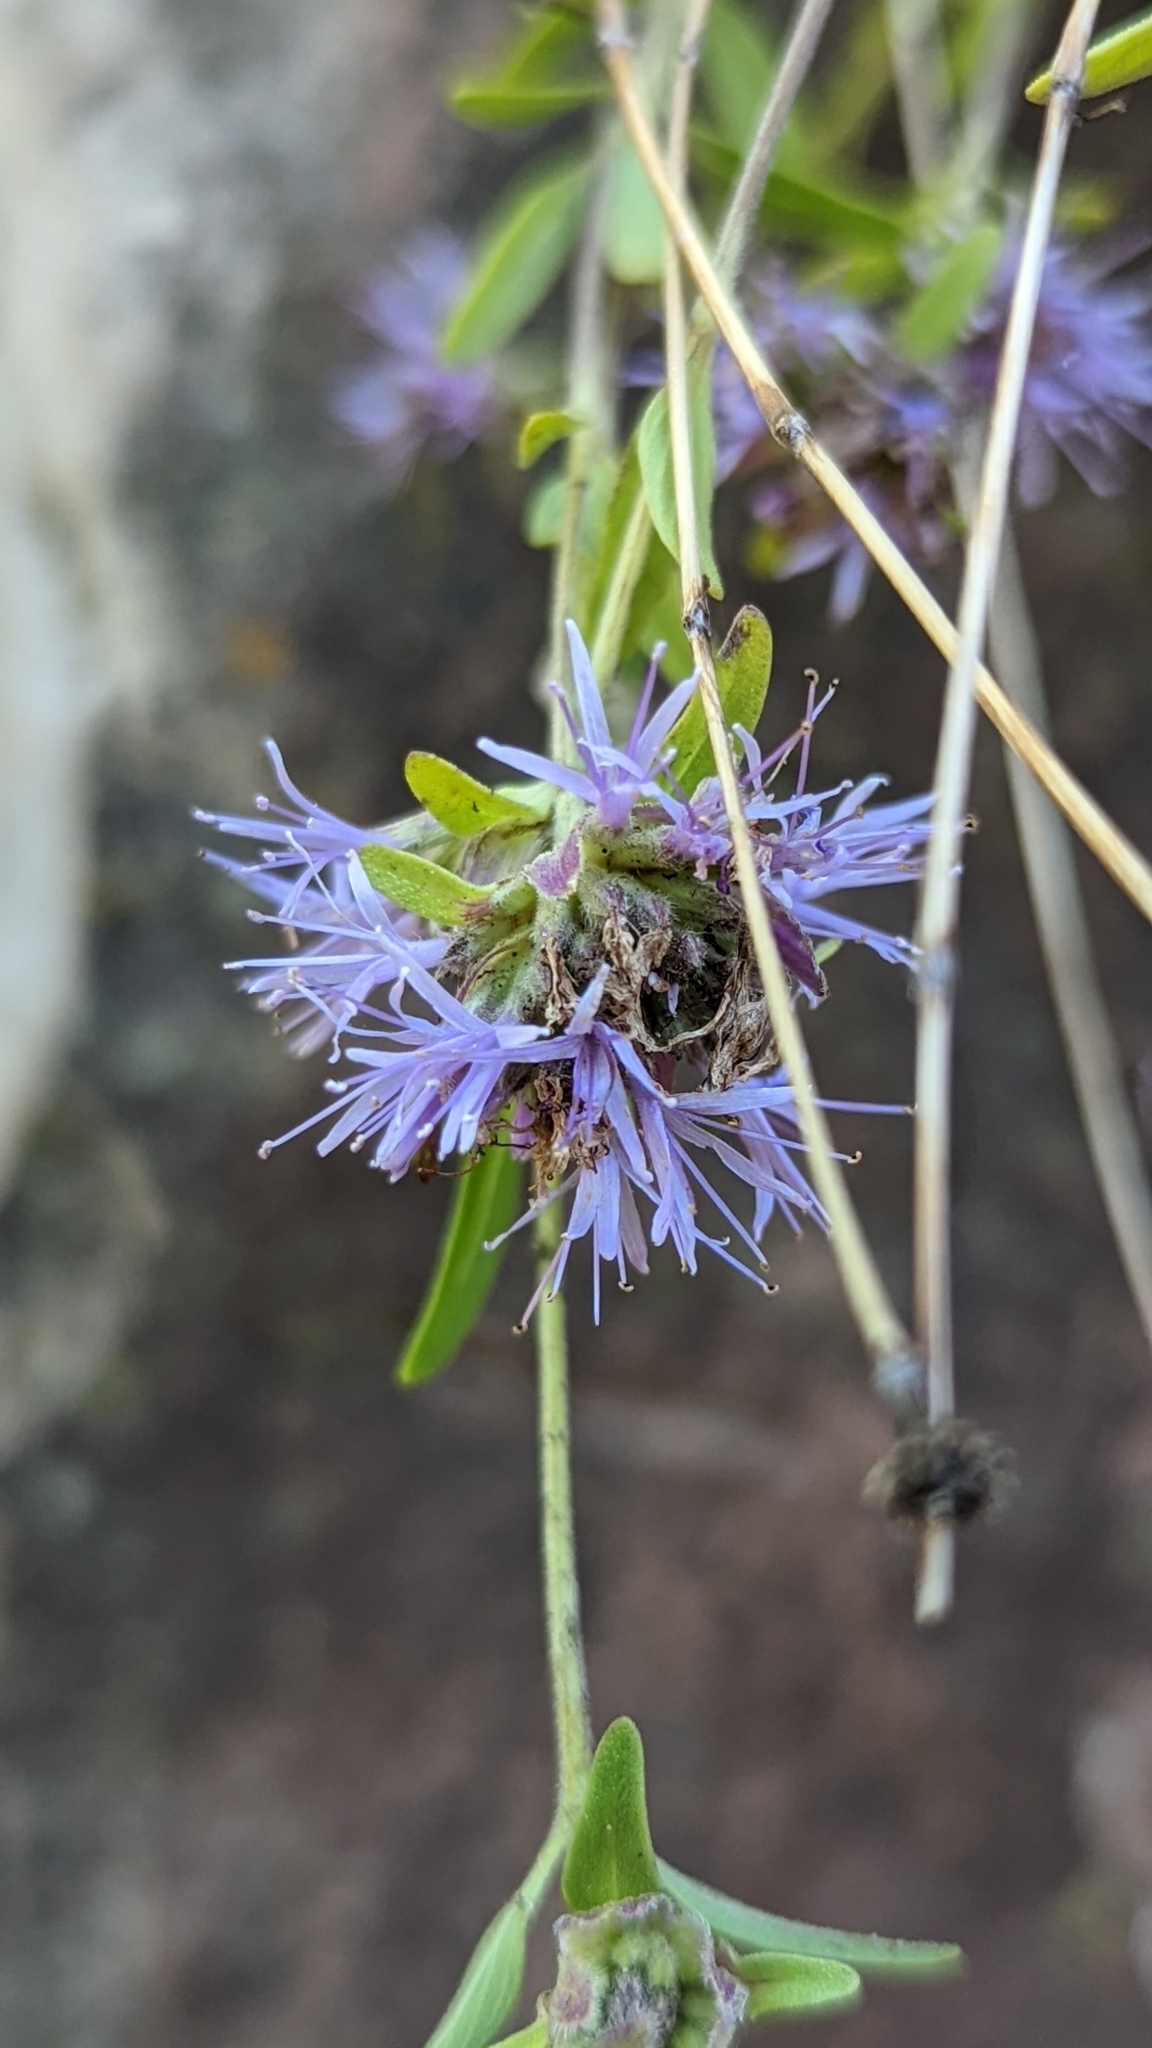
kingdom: Plantae
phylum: Tracheophyta
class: Magnoliopsida
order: Lamiales
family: Lamiaceae
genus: Monardella
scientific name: Monardella odoratissima
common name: Pacific monardella
